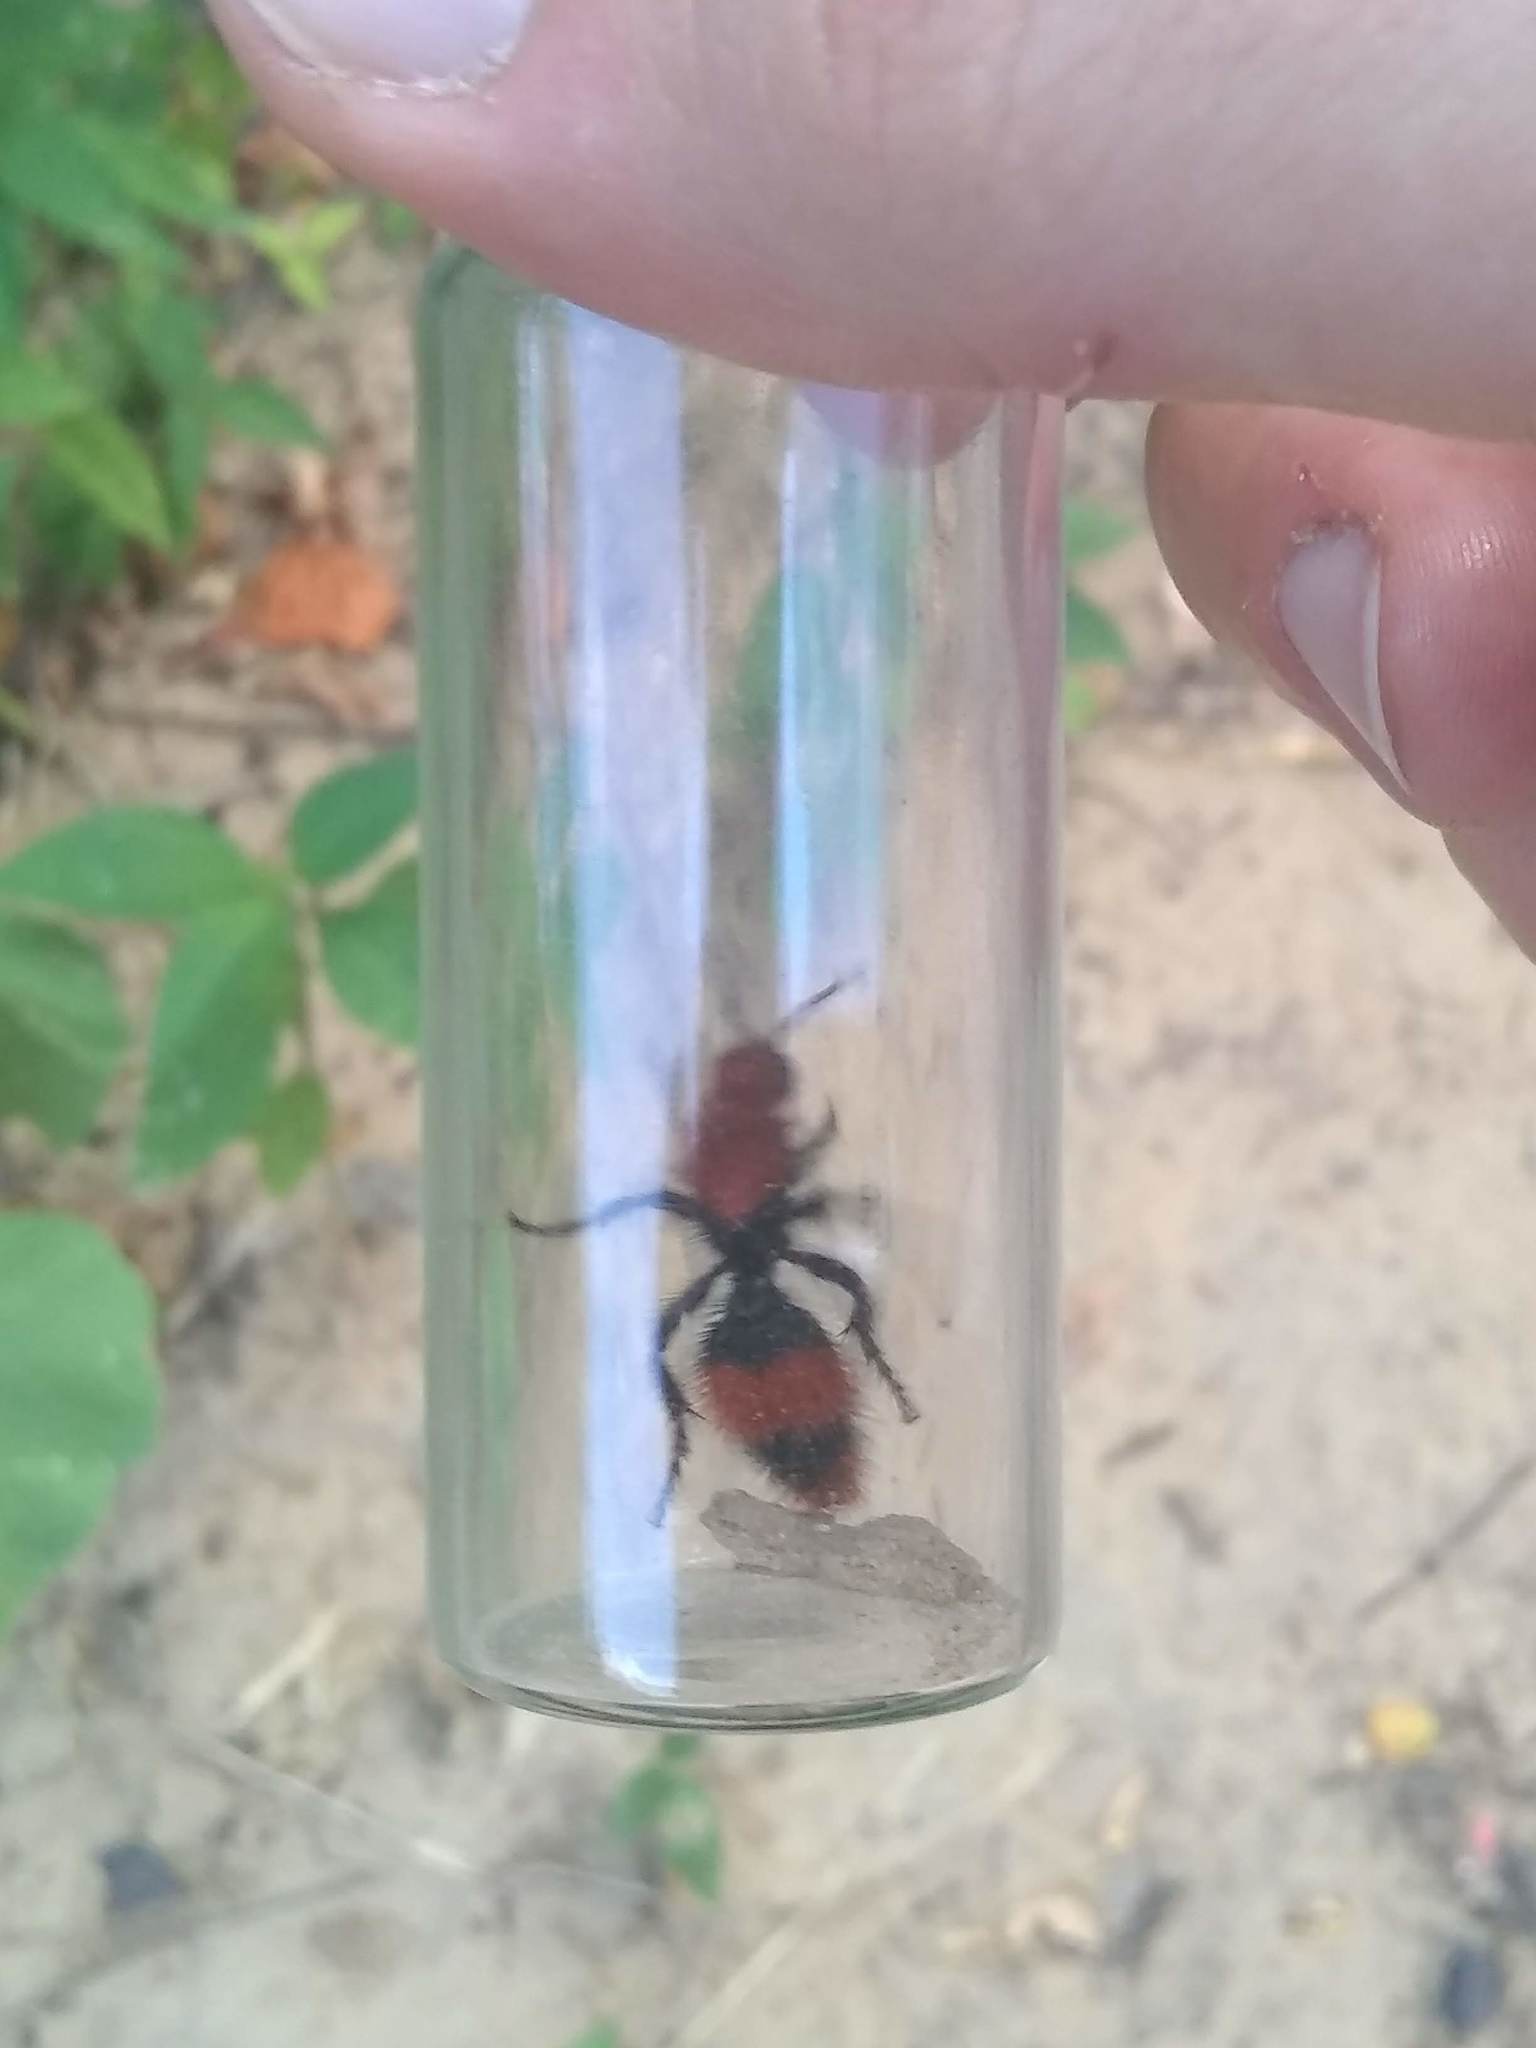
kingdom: Animalia
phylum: Arthropoda
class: Insecta
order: Hymenoptera
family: Mutillidae
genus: Dasymutilla
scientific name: Dasymutilla occidentalis
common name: Common eastern velvet ant
